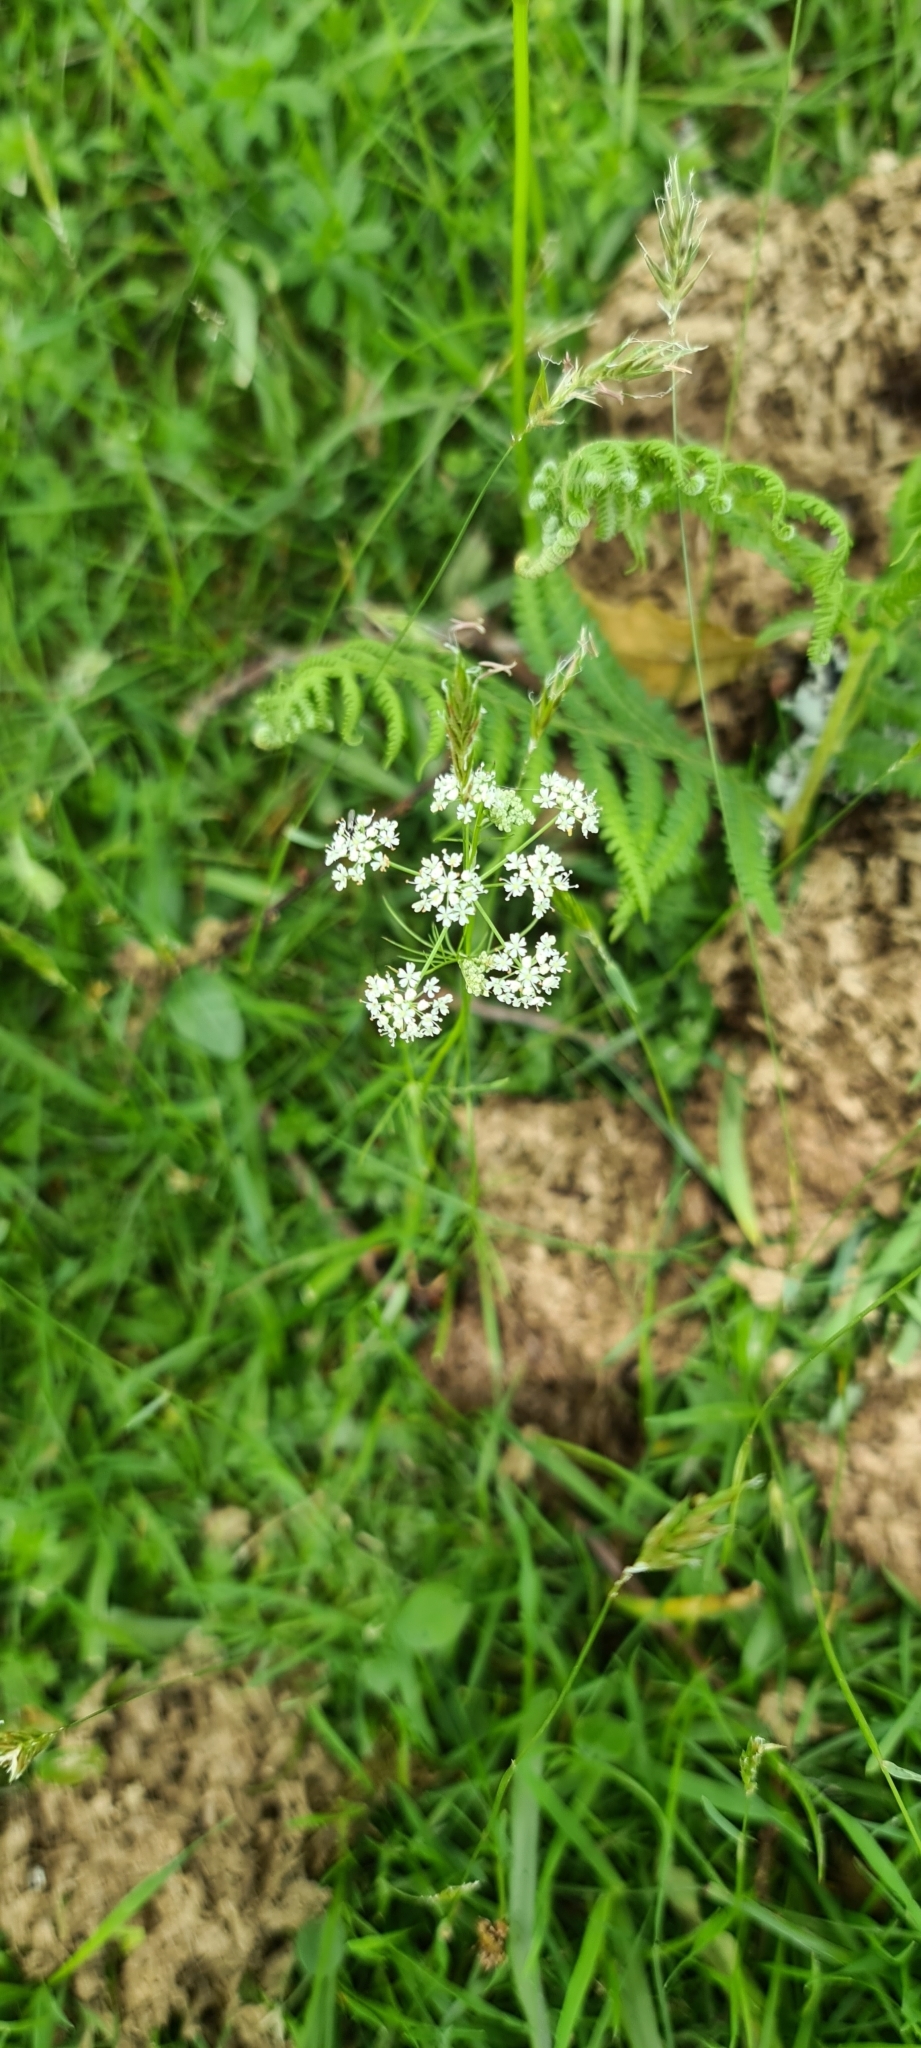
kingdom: Plantae
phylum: Tracheophyta
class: Magnoliopsida
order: Apiales
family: Apiaceae
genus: Conopodium
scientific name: Conopodium majus
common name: Pignut
